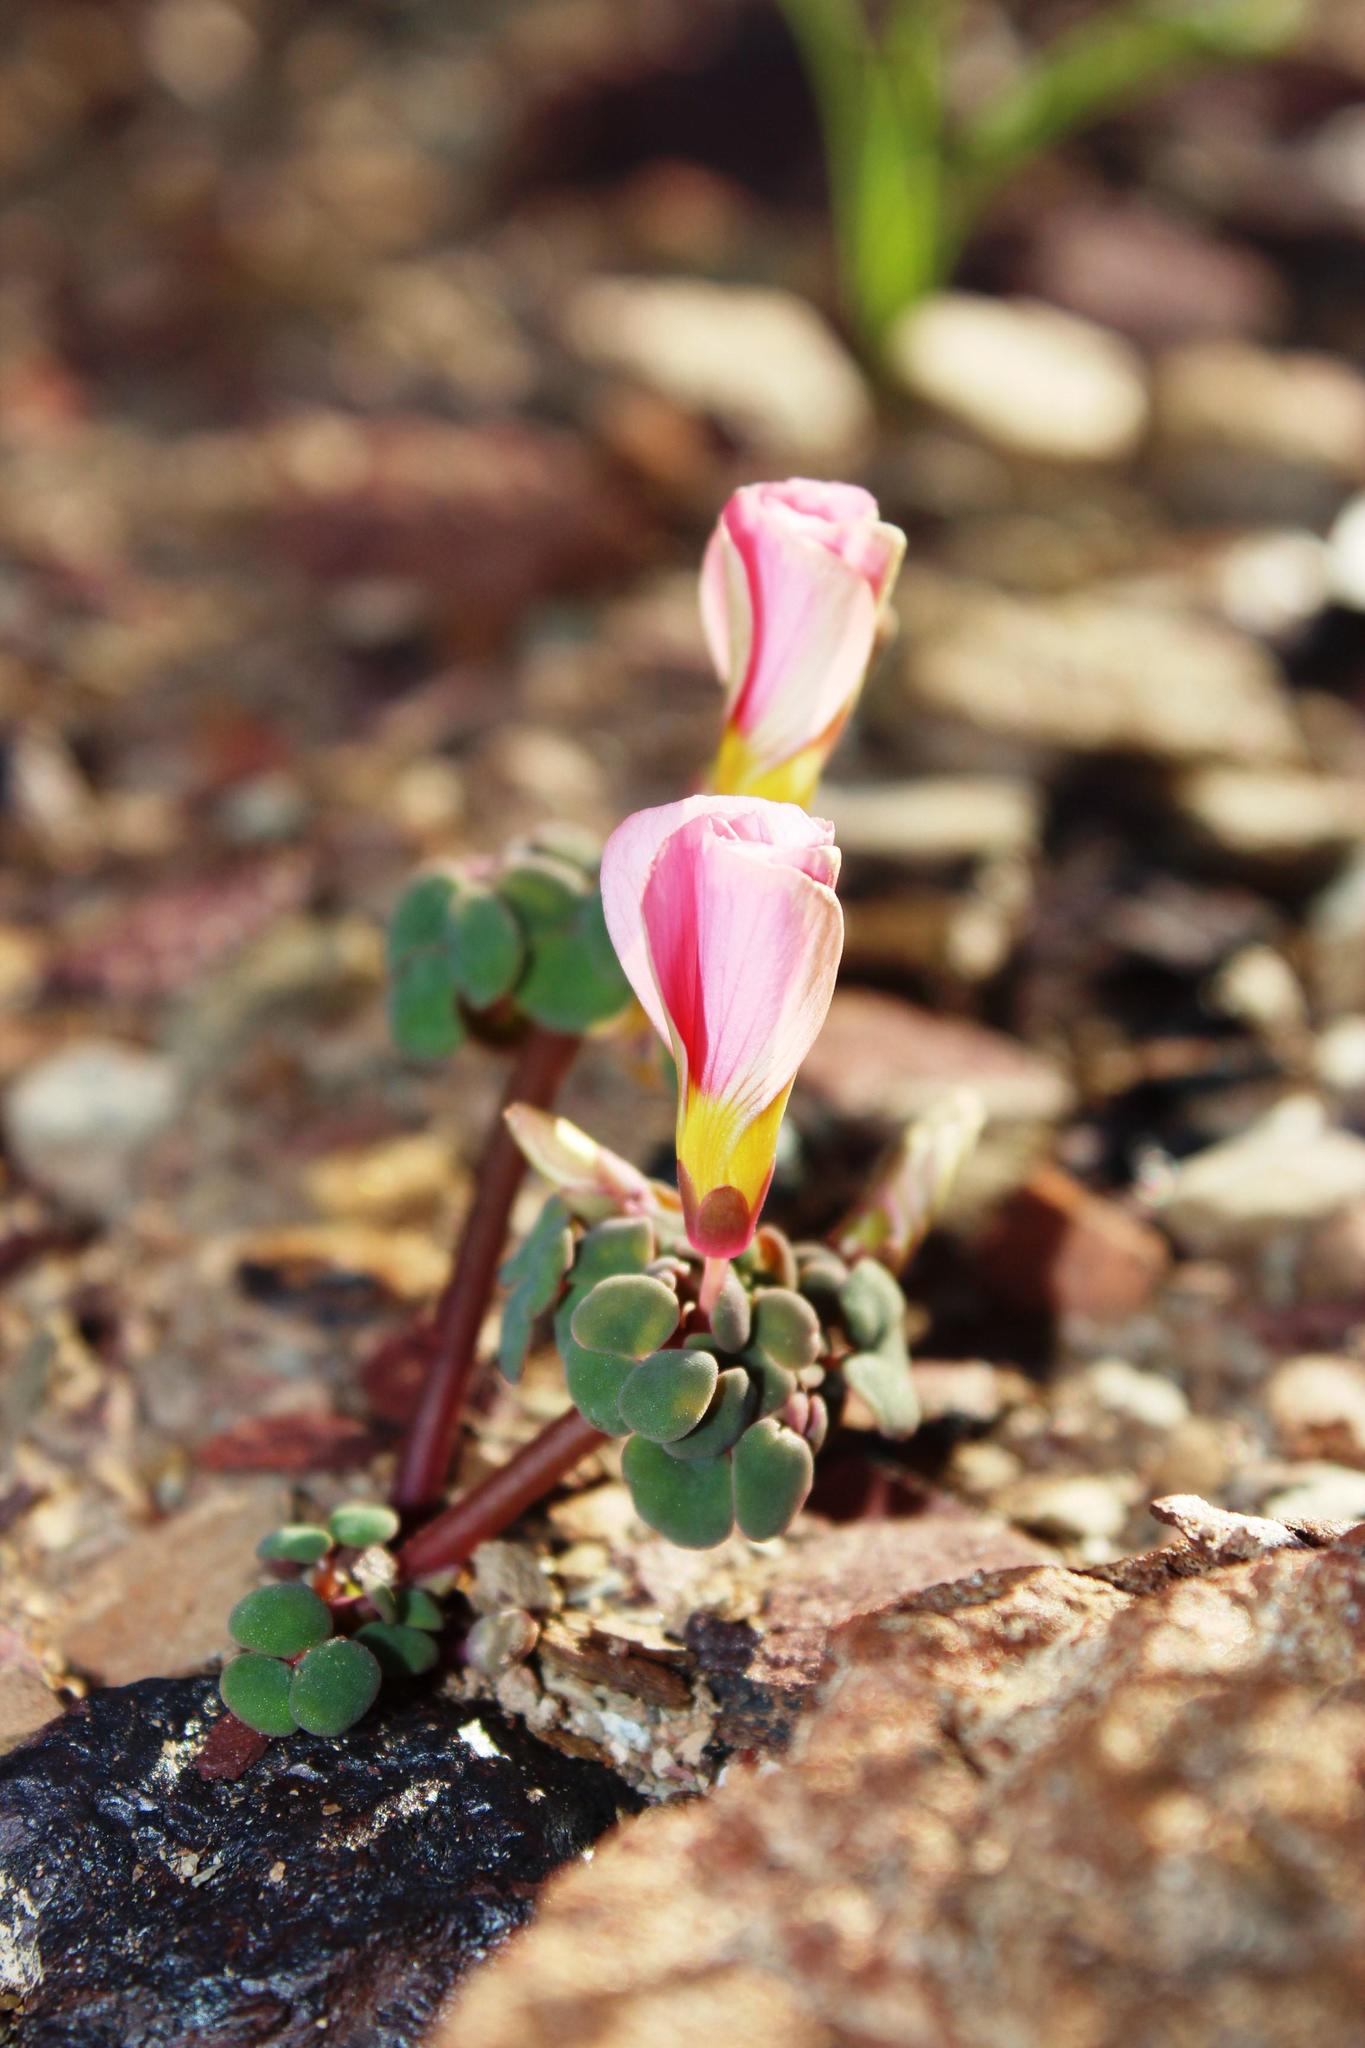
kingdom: Plantae
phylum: Tracheophyta
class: Magnoliopsida
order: Oxalidales
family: Oxalidaceae
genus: Oxalis
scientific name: Oxalis convexula
